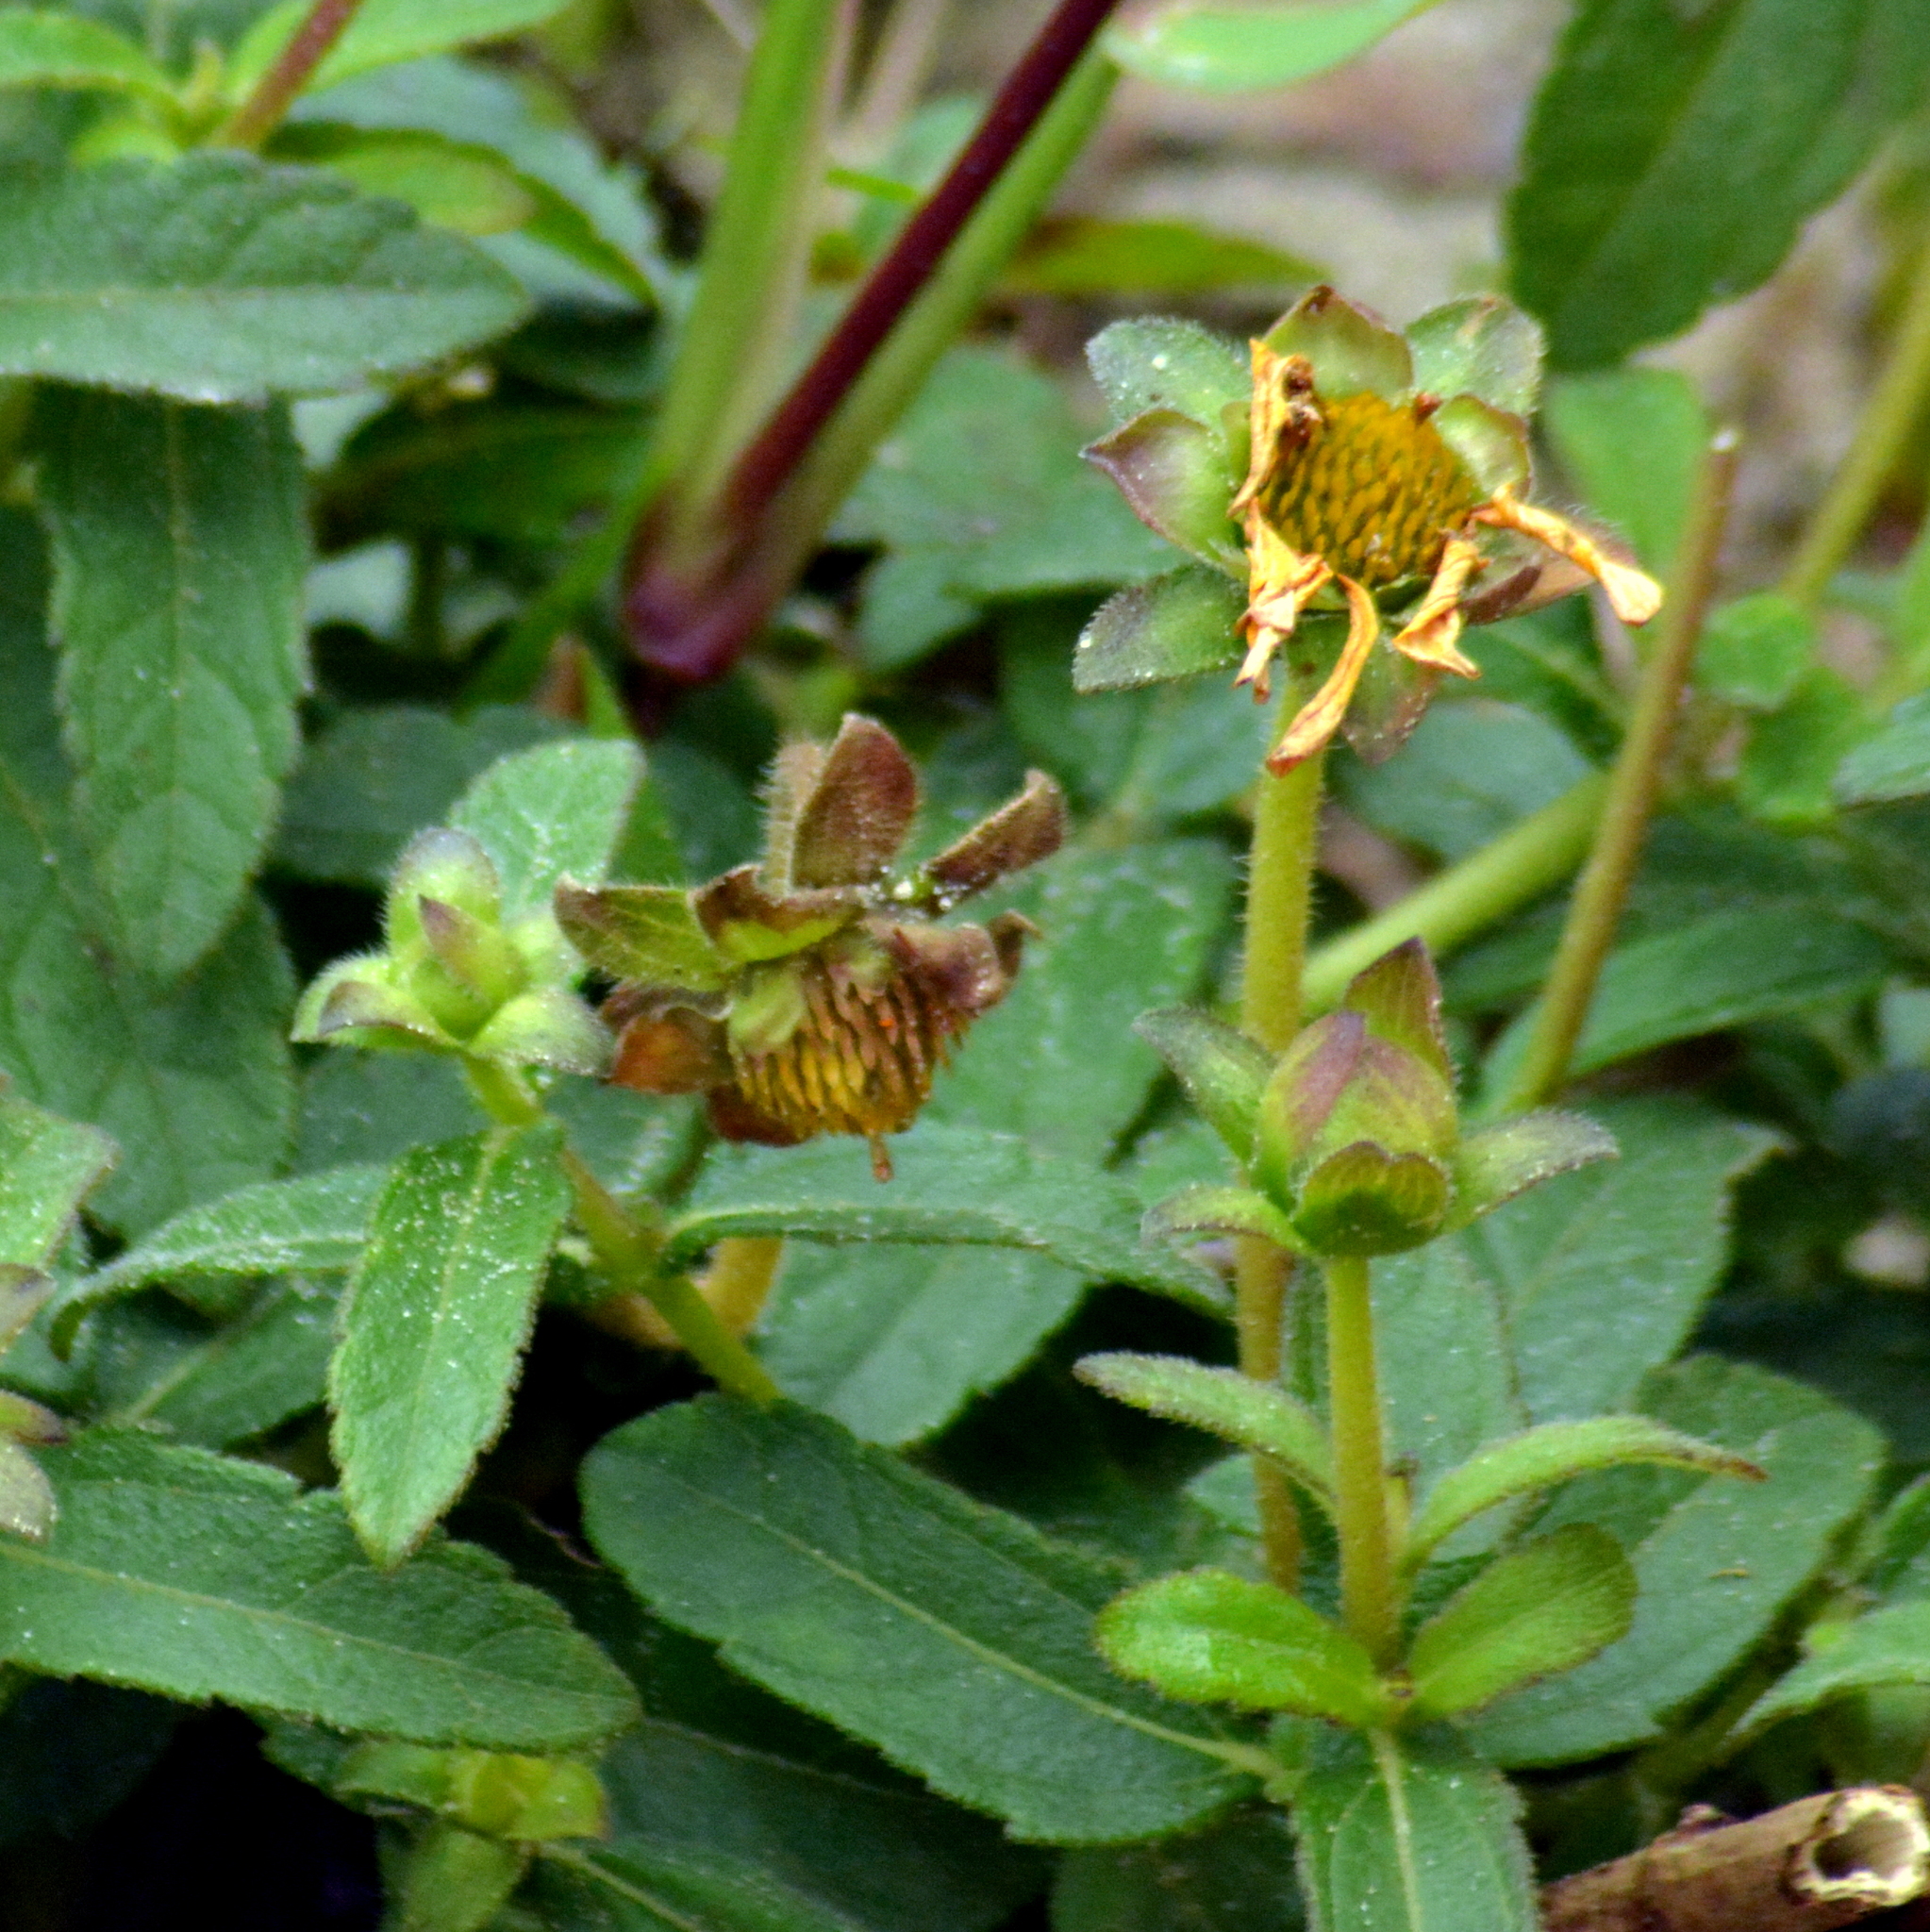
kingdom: Plantae
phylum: Tracheophyta
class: Magnoliopsida
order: Asterales
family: Asteraceae
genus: Wedelia
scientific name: Wedelia montevidensis
